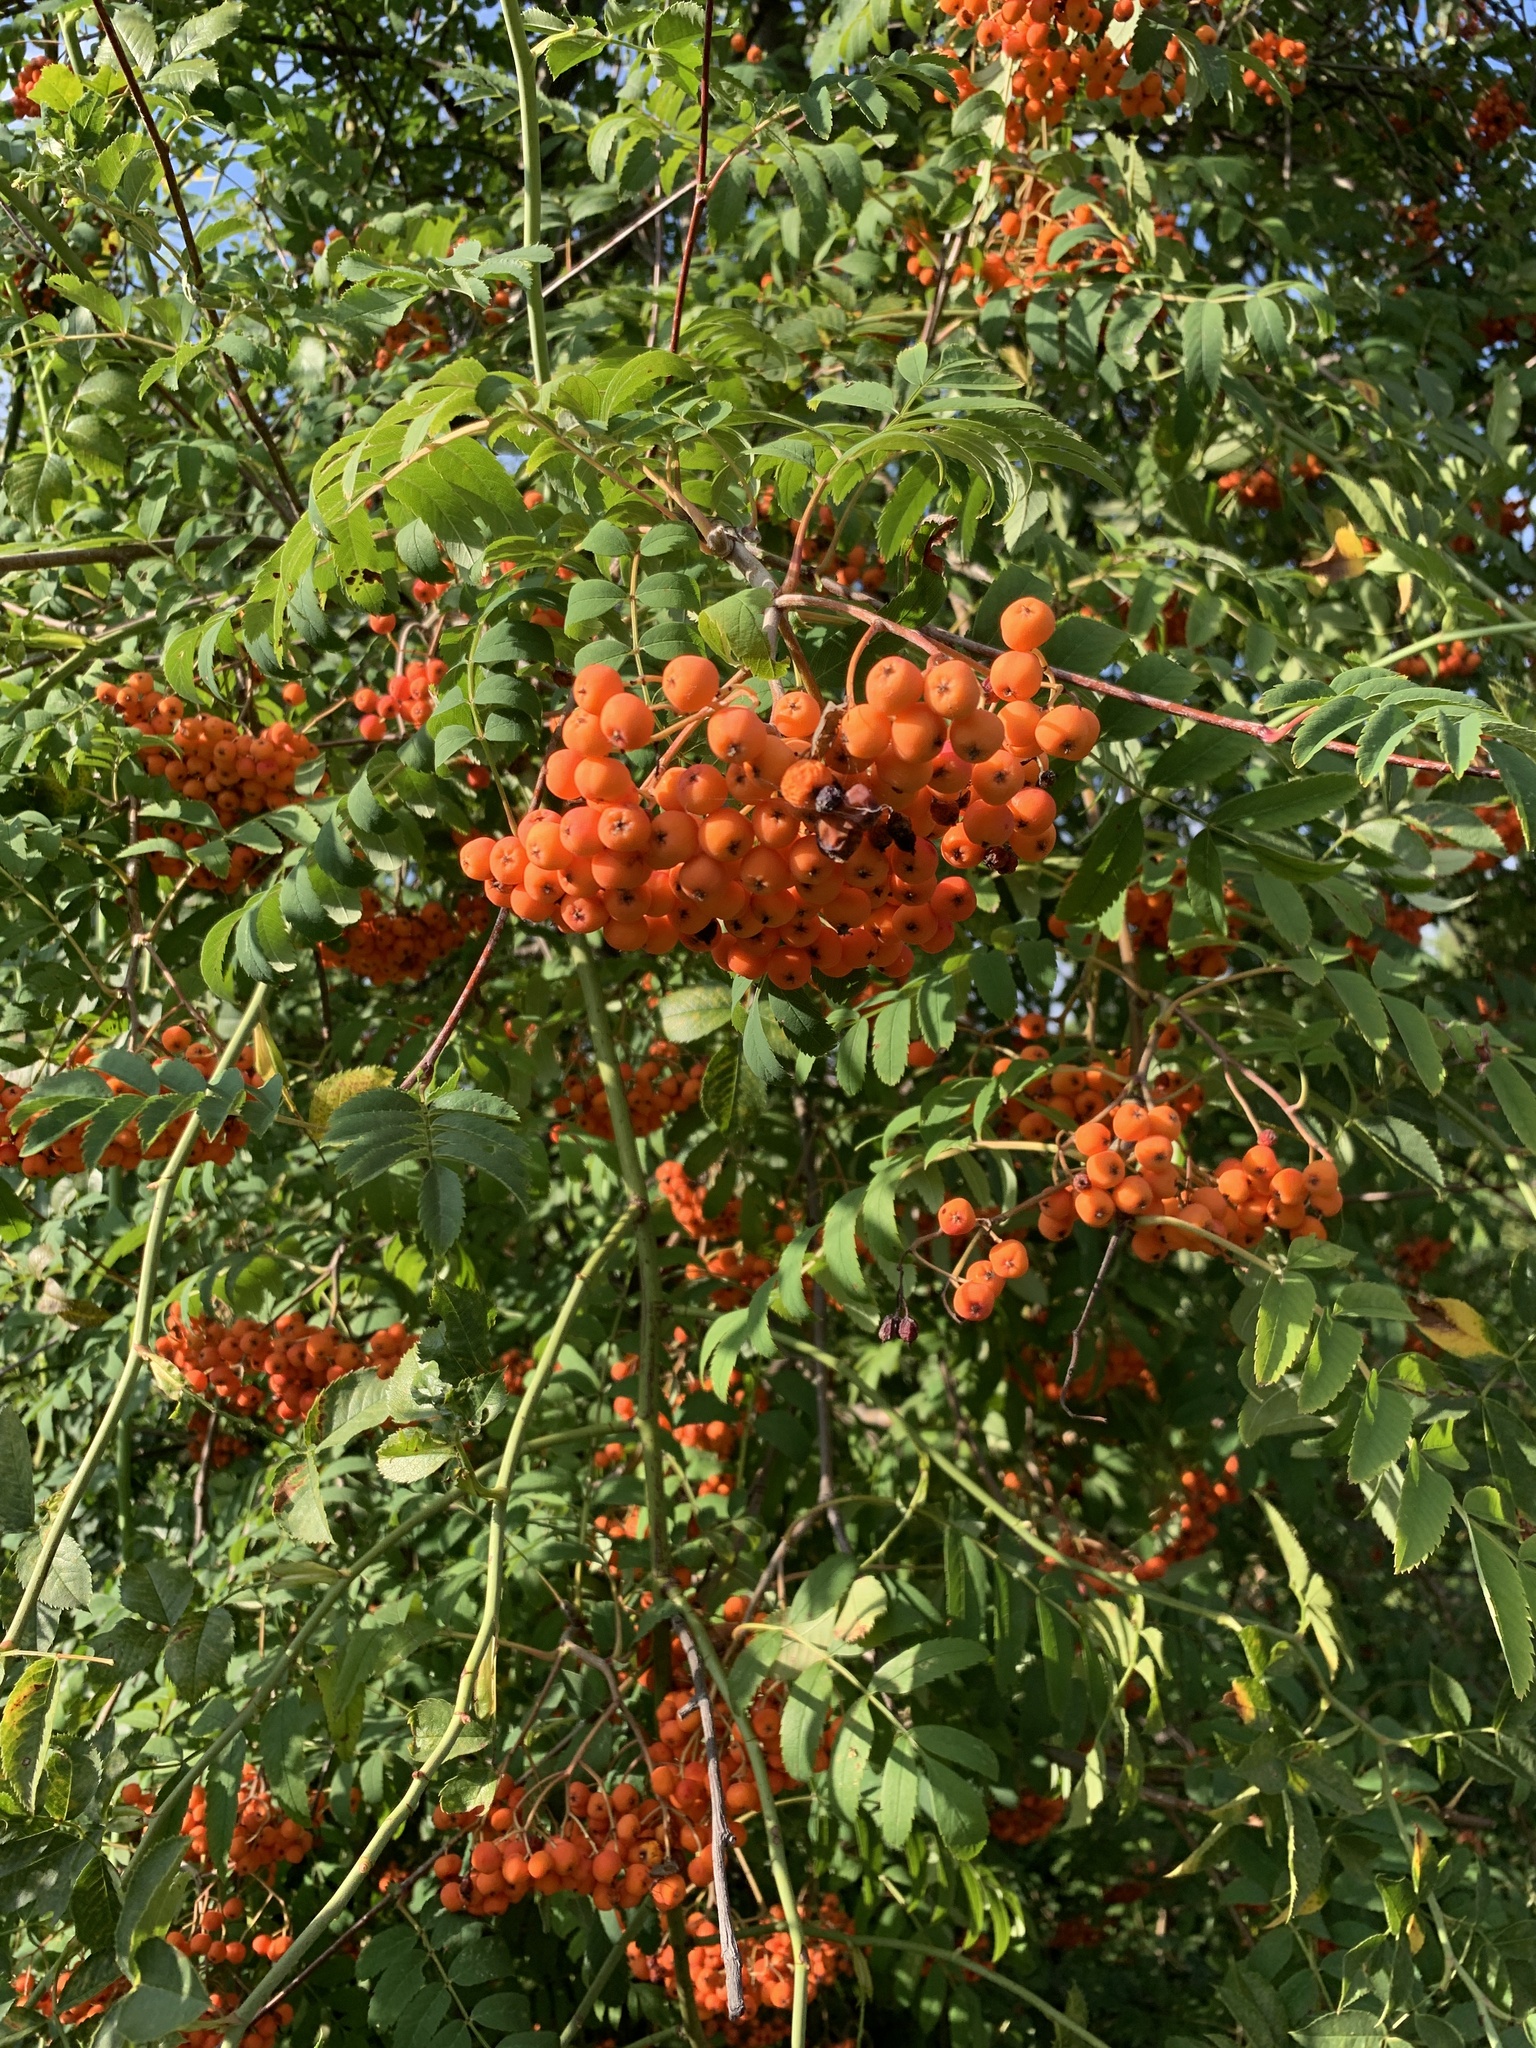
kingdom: Plantae
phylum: Tracheophyta
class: Magnoliopsida
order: Rosales
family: Rosaceae
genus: Sorbus
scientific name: Sorbus aucuparia
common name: Rowan
